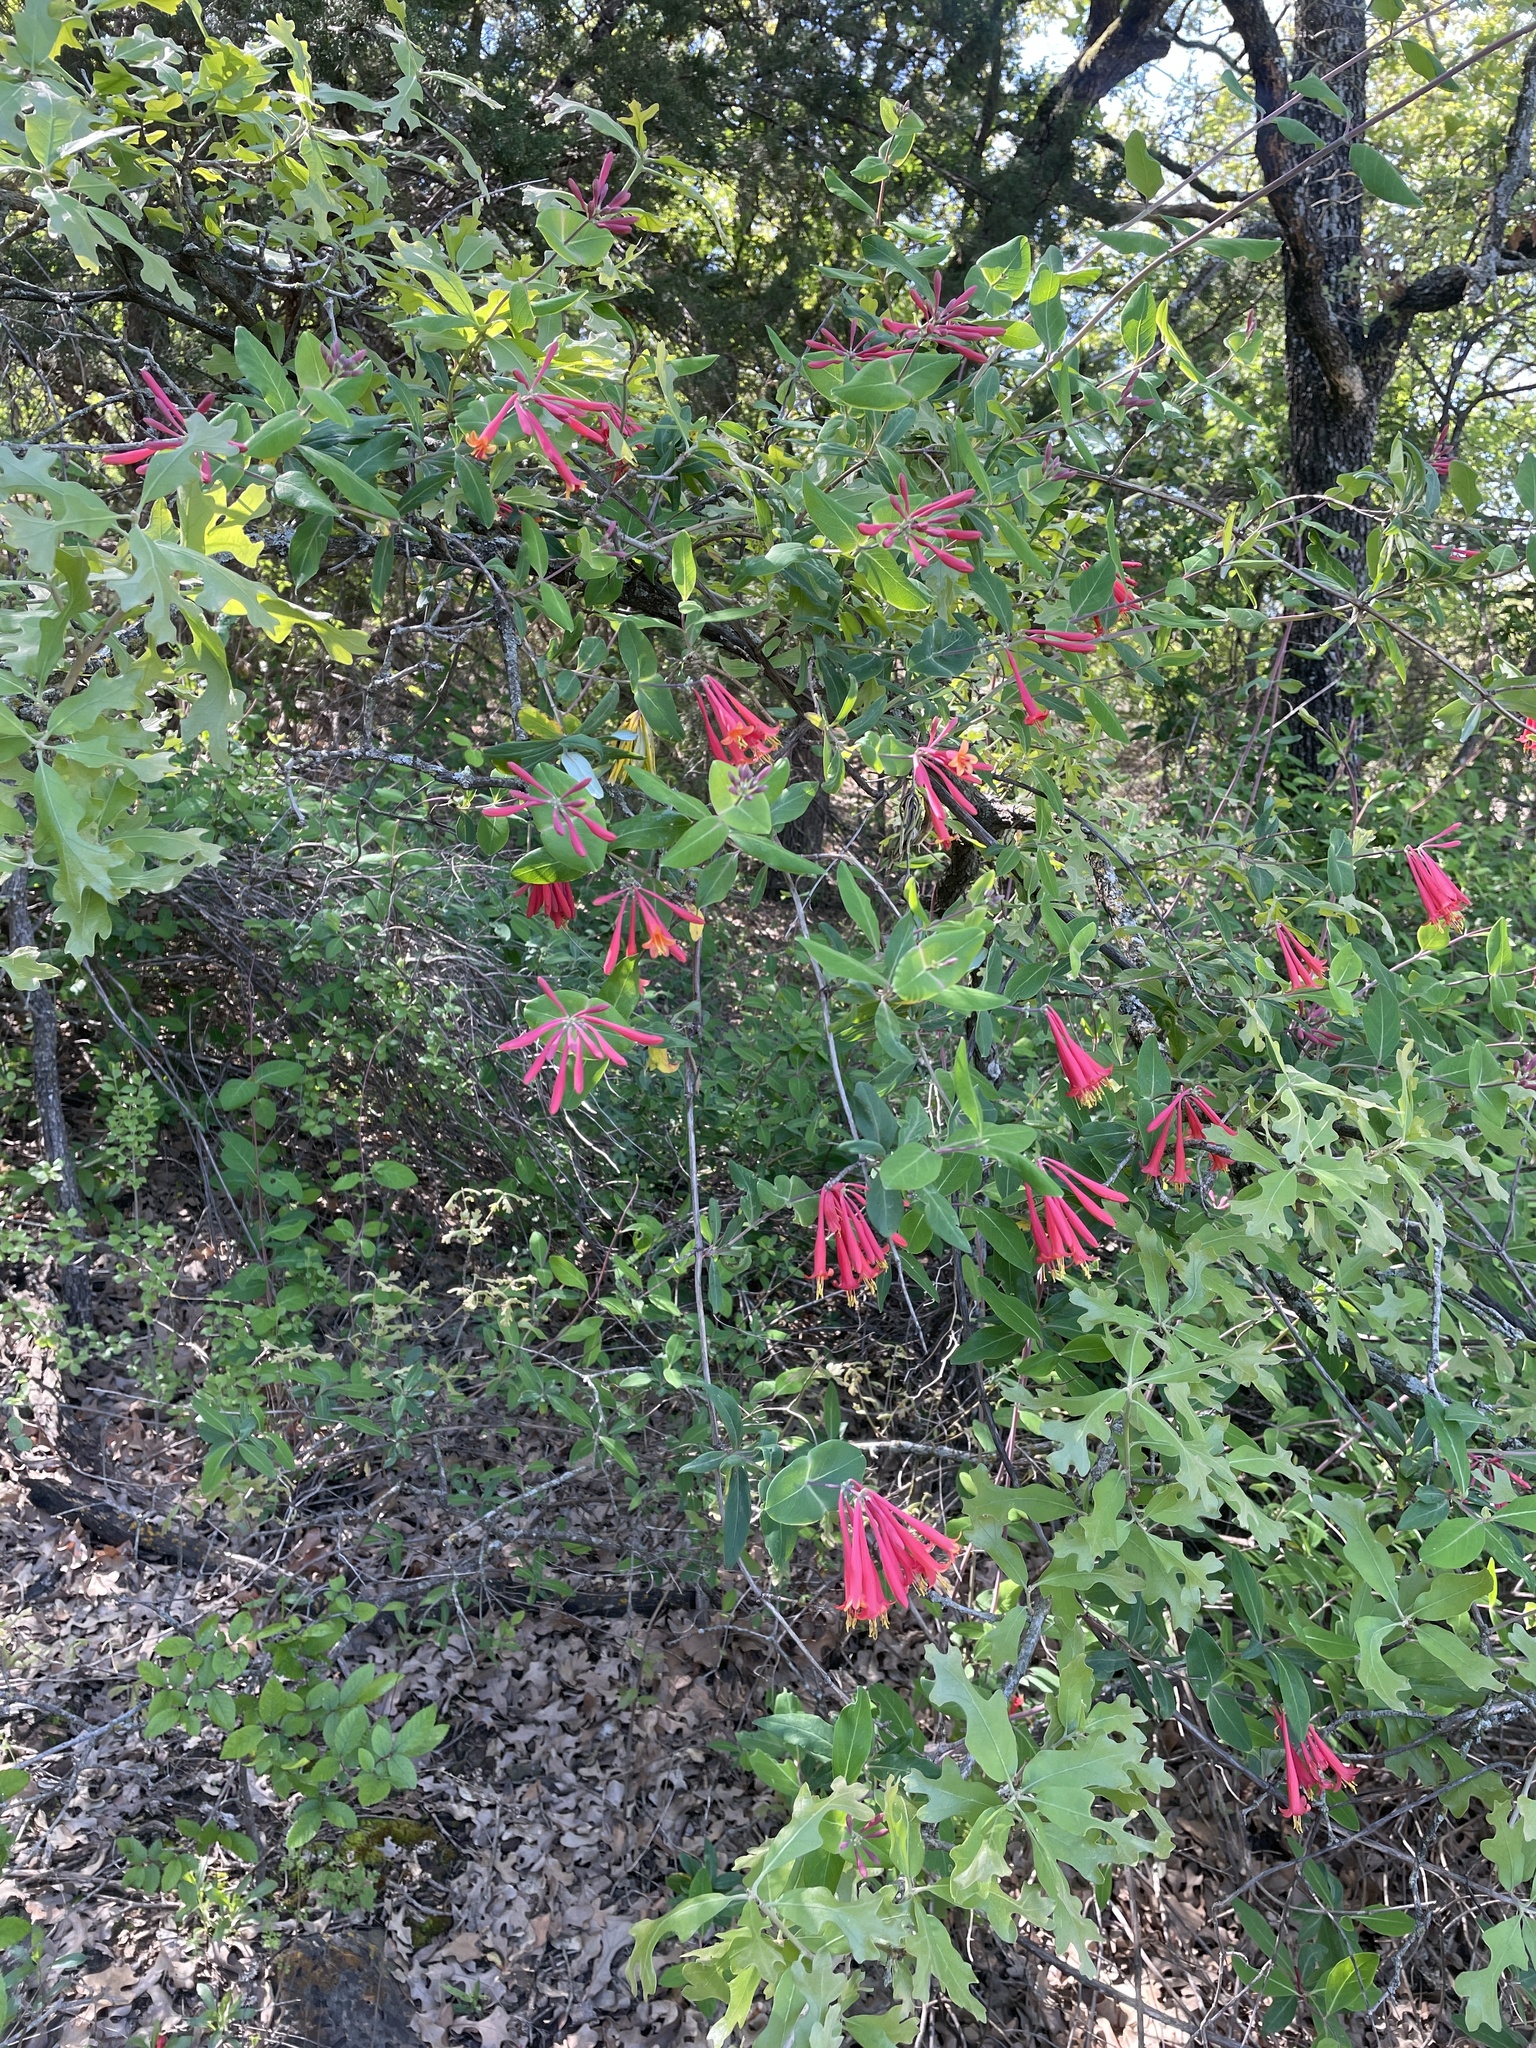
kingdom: Plantae
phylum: Tracheophyta
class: Magnoliopsida
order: Dipsacales
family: Caprifoliaceae
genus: Lonicera
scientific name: Lonicera sempervirens
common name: Coral honeysuckle
